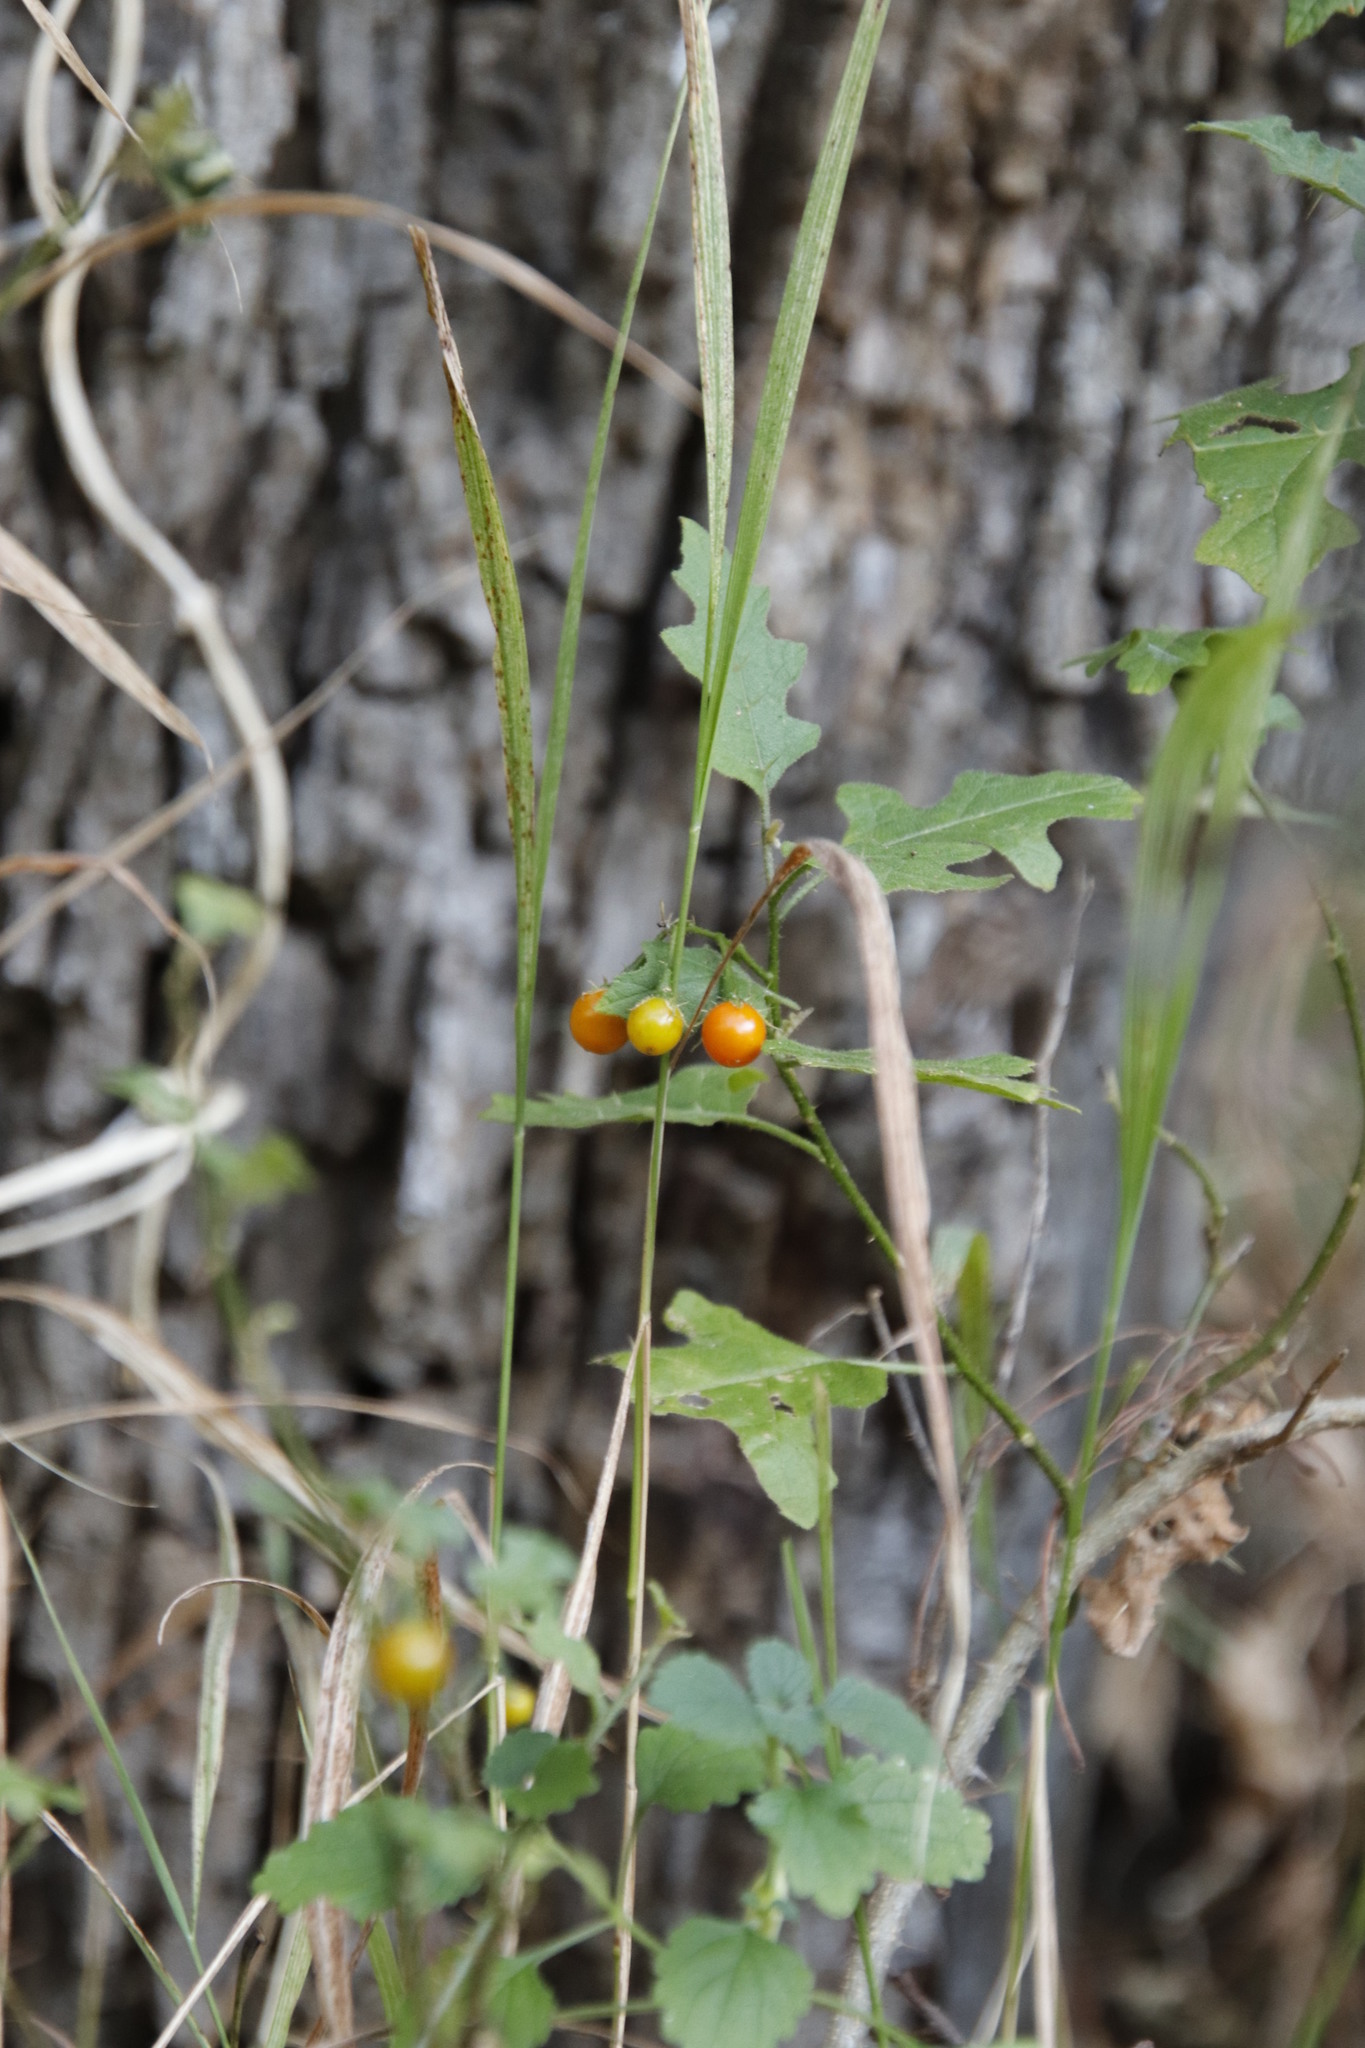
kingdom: Plantae
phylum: Tracheophyta
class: Magnoliopsida
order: Solanales
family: Solanaceae
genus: Solanum
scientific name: Solanum rubetorum
